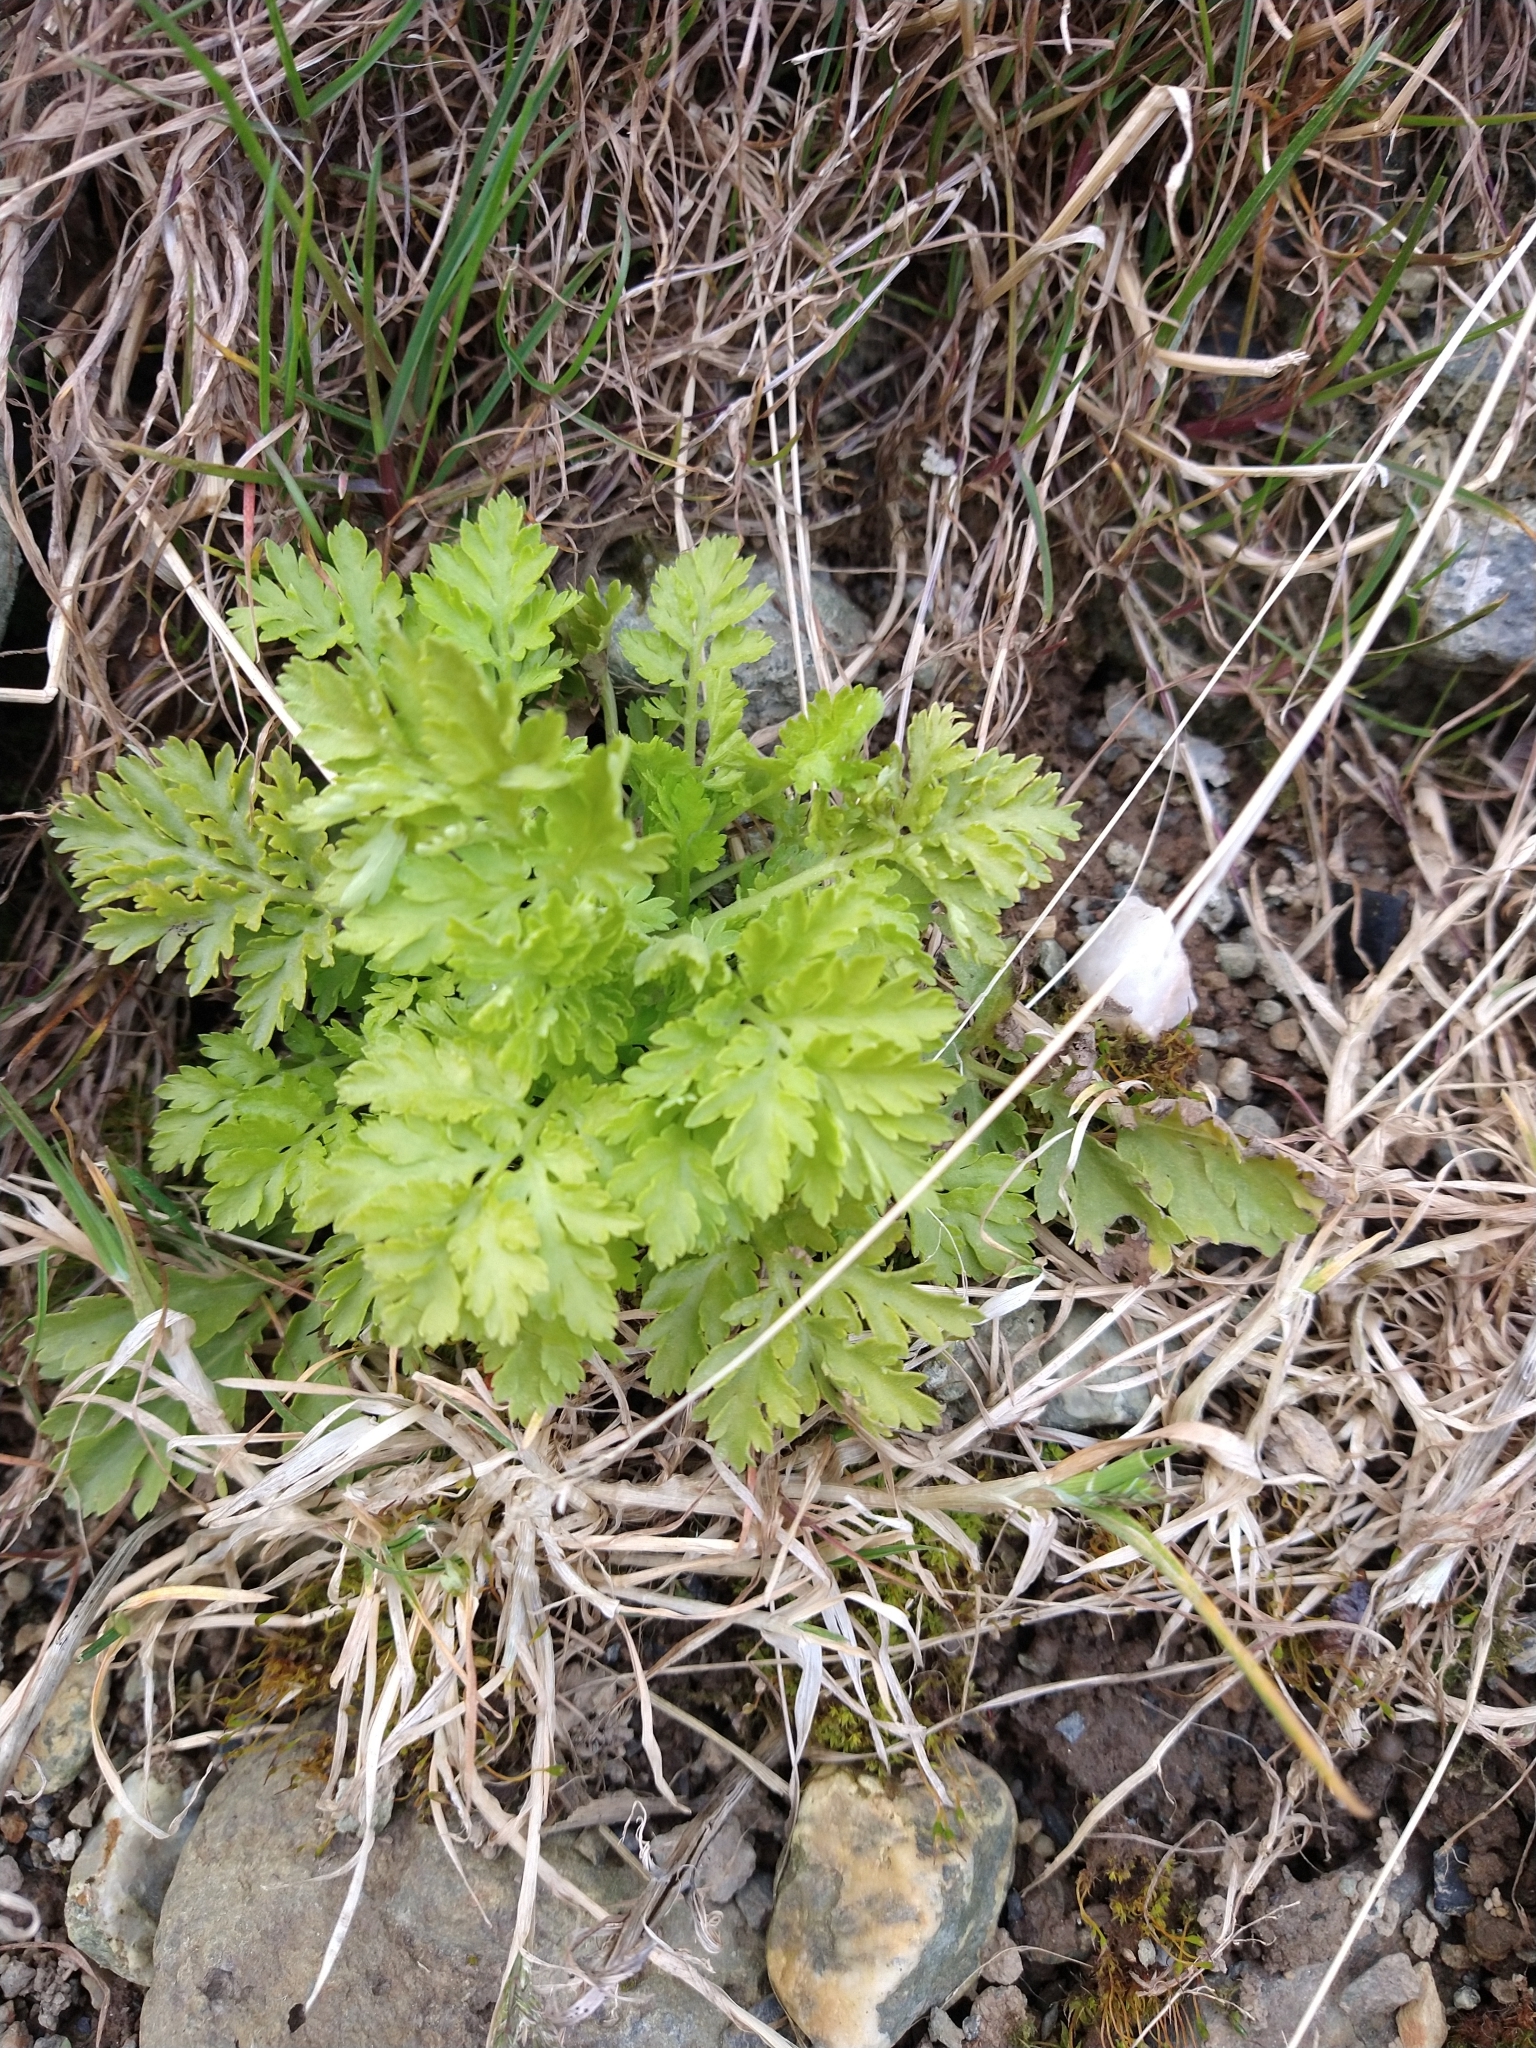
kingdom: Plantae
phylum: Tracheophyta
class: Magnoliopsida
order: Asterales
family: Asteraceae
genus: Tanacetum
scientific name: Tanacetum parthenium
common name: Feverfew
